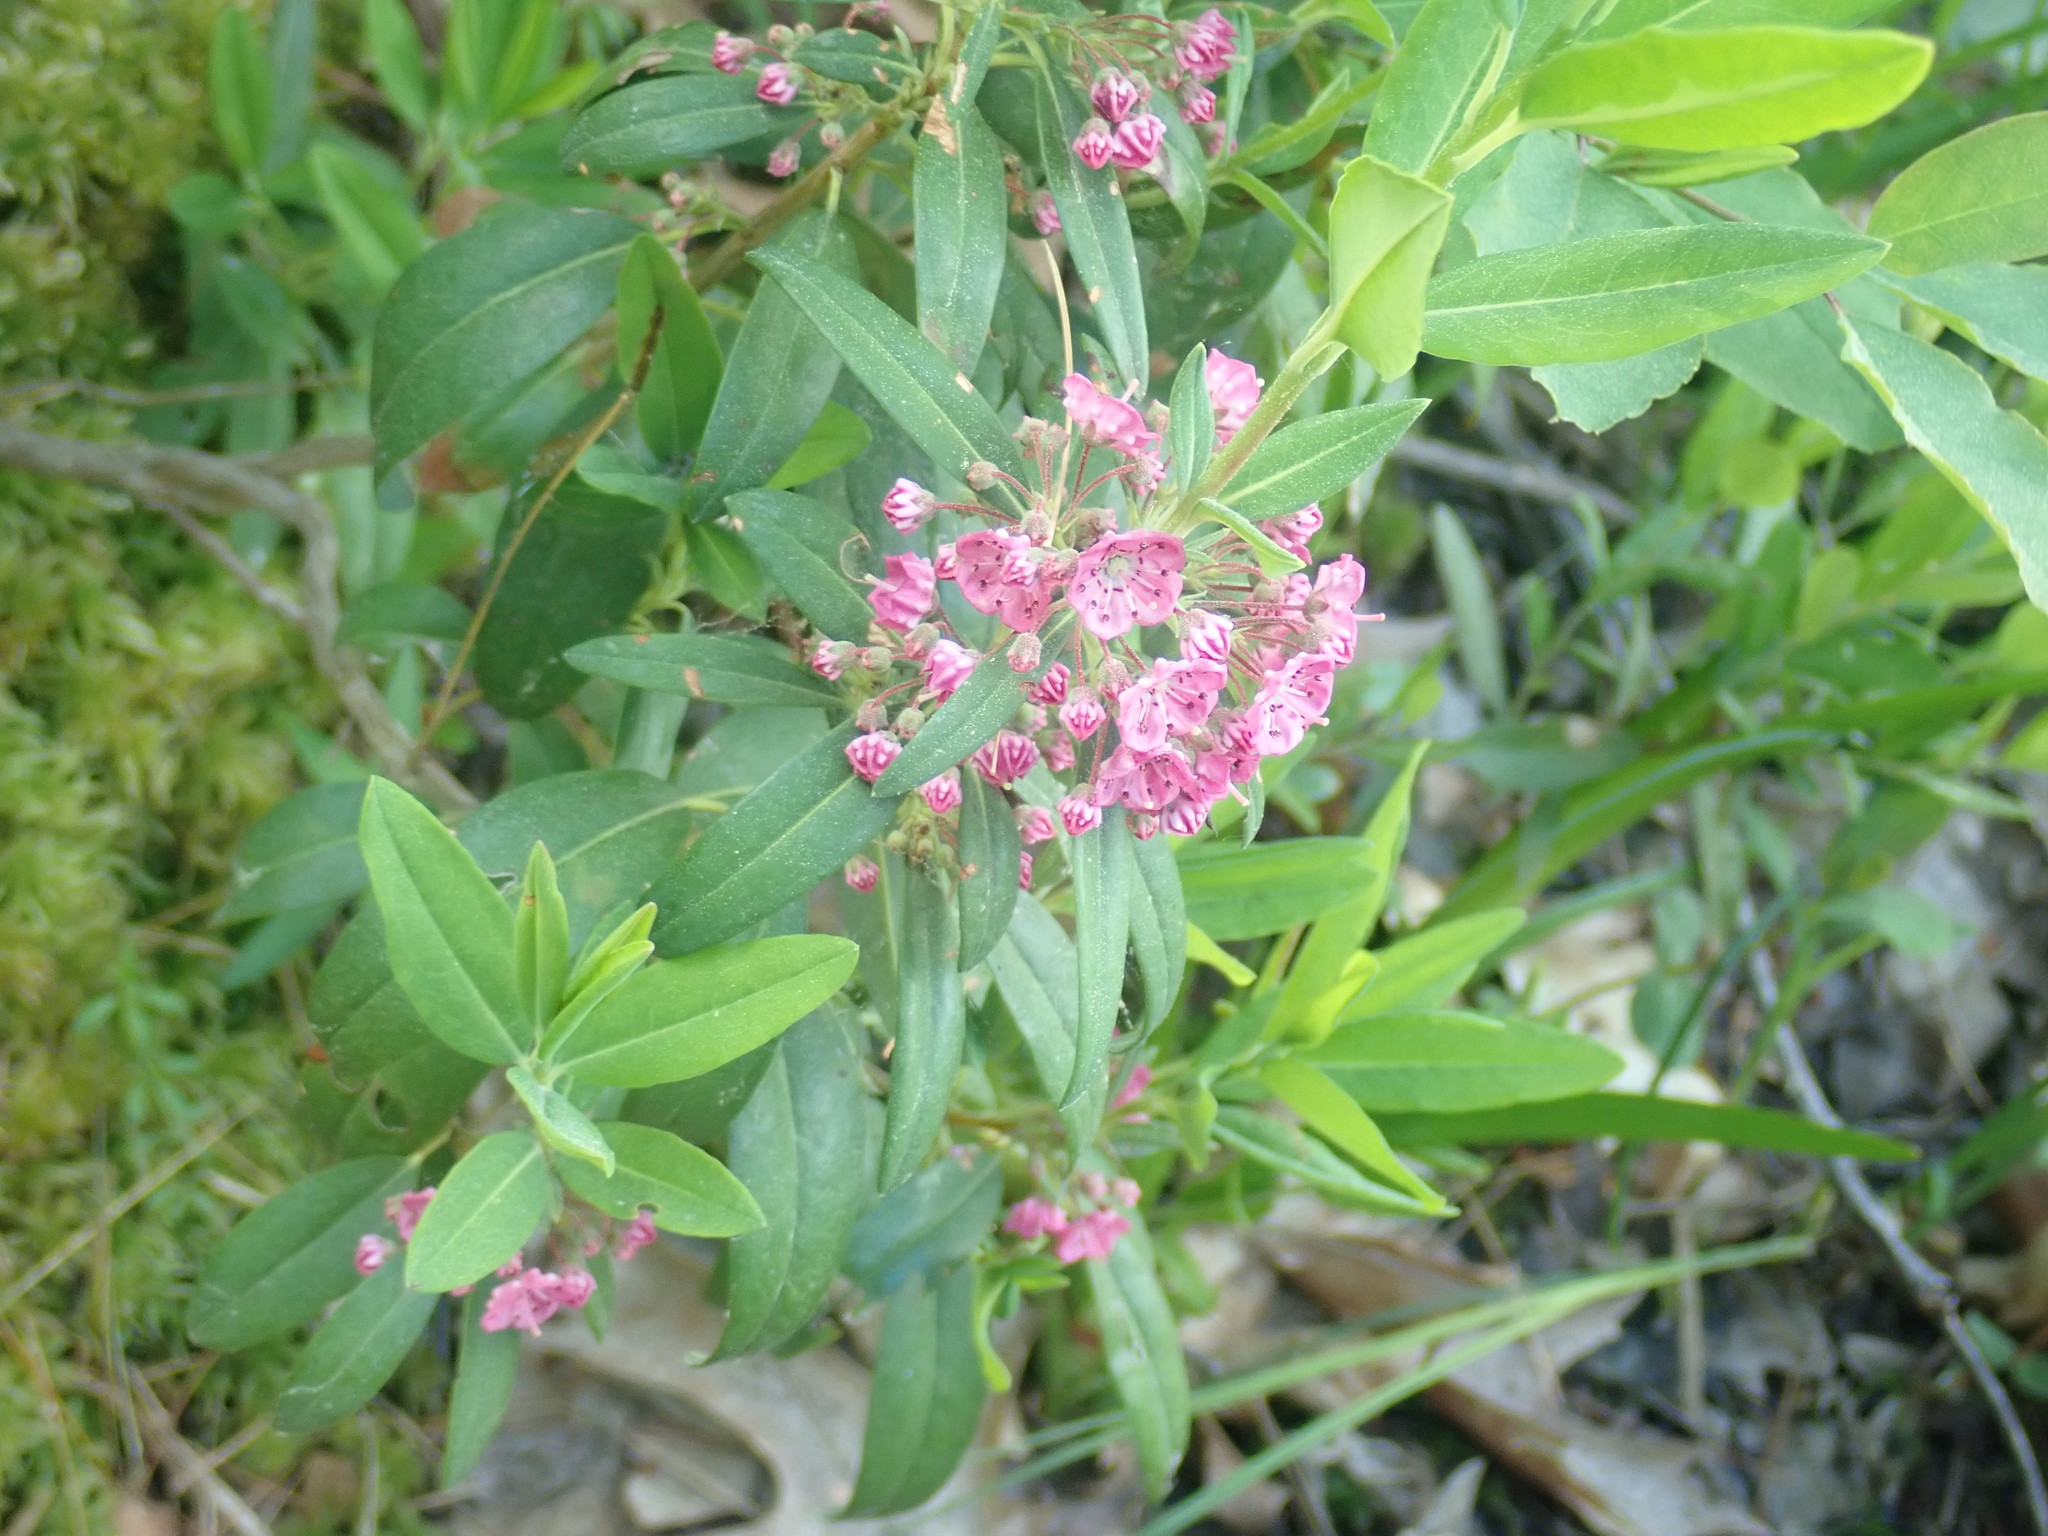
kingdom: Plantae
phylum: Tracheophyta
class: Magnoliopsida
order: Ericales
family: Ericaceae
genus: Kalmia
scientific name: Kalmia angustifolia
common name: Sheep-laurel
